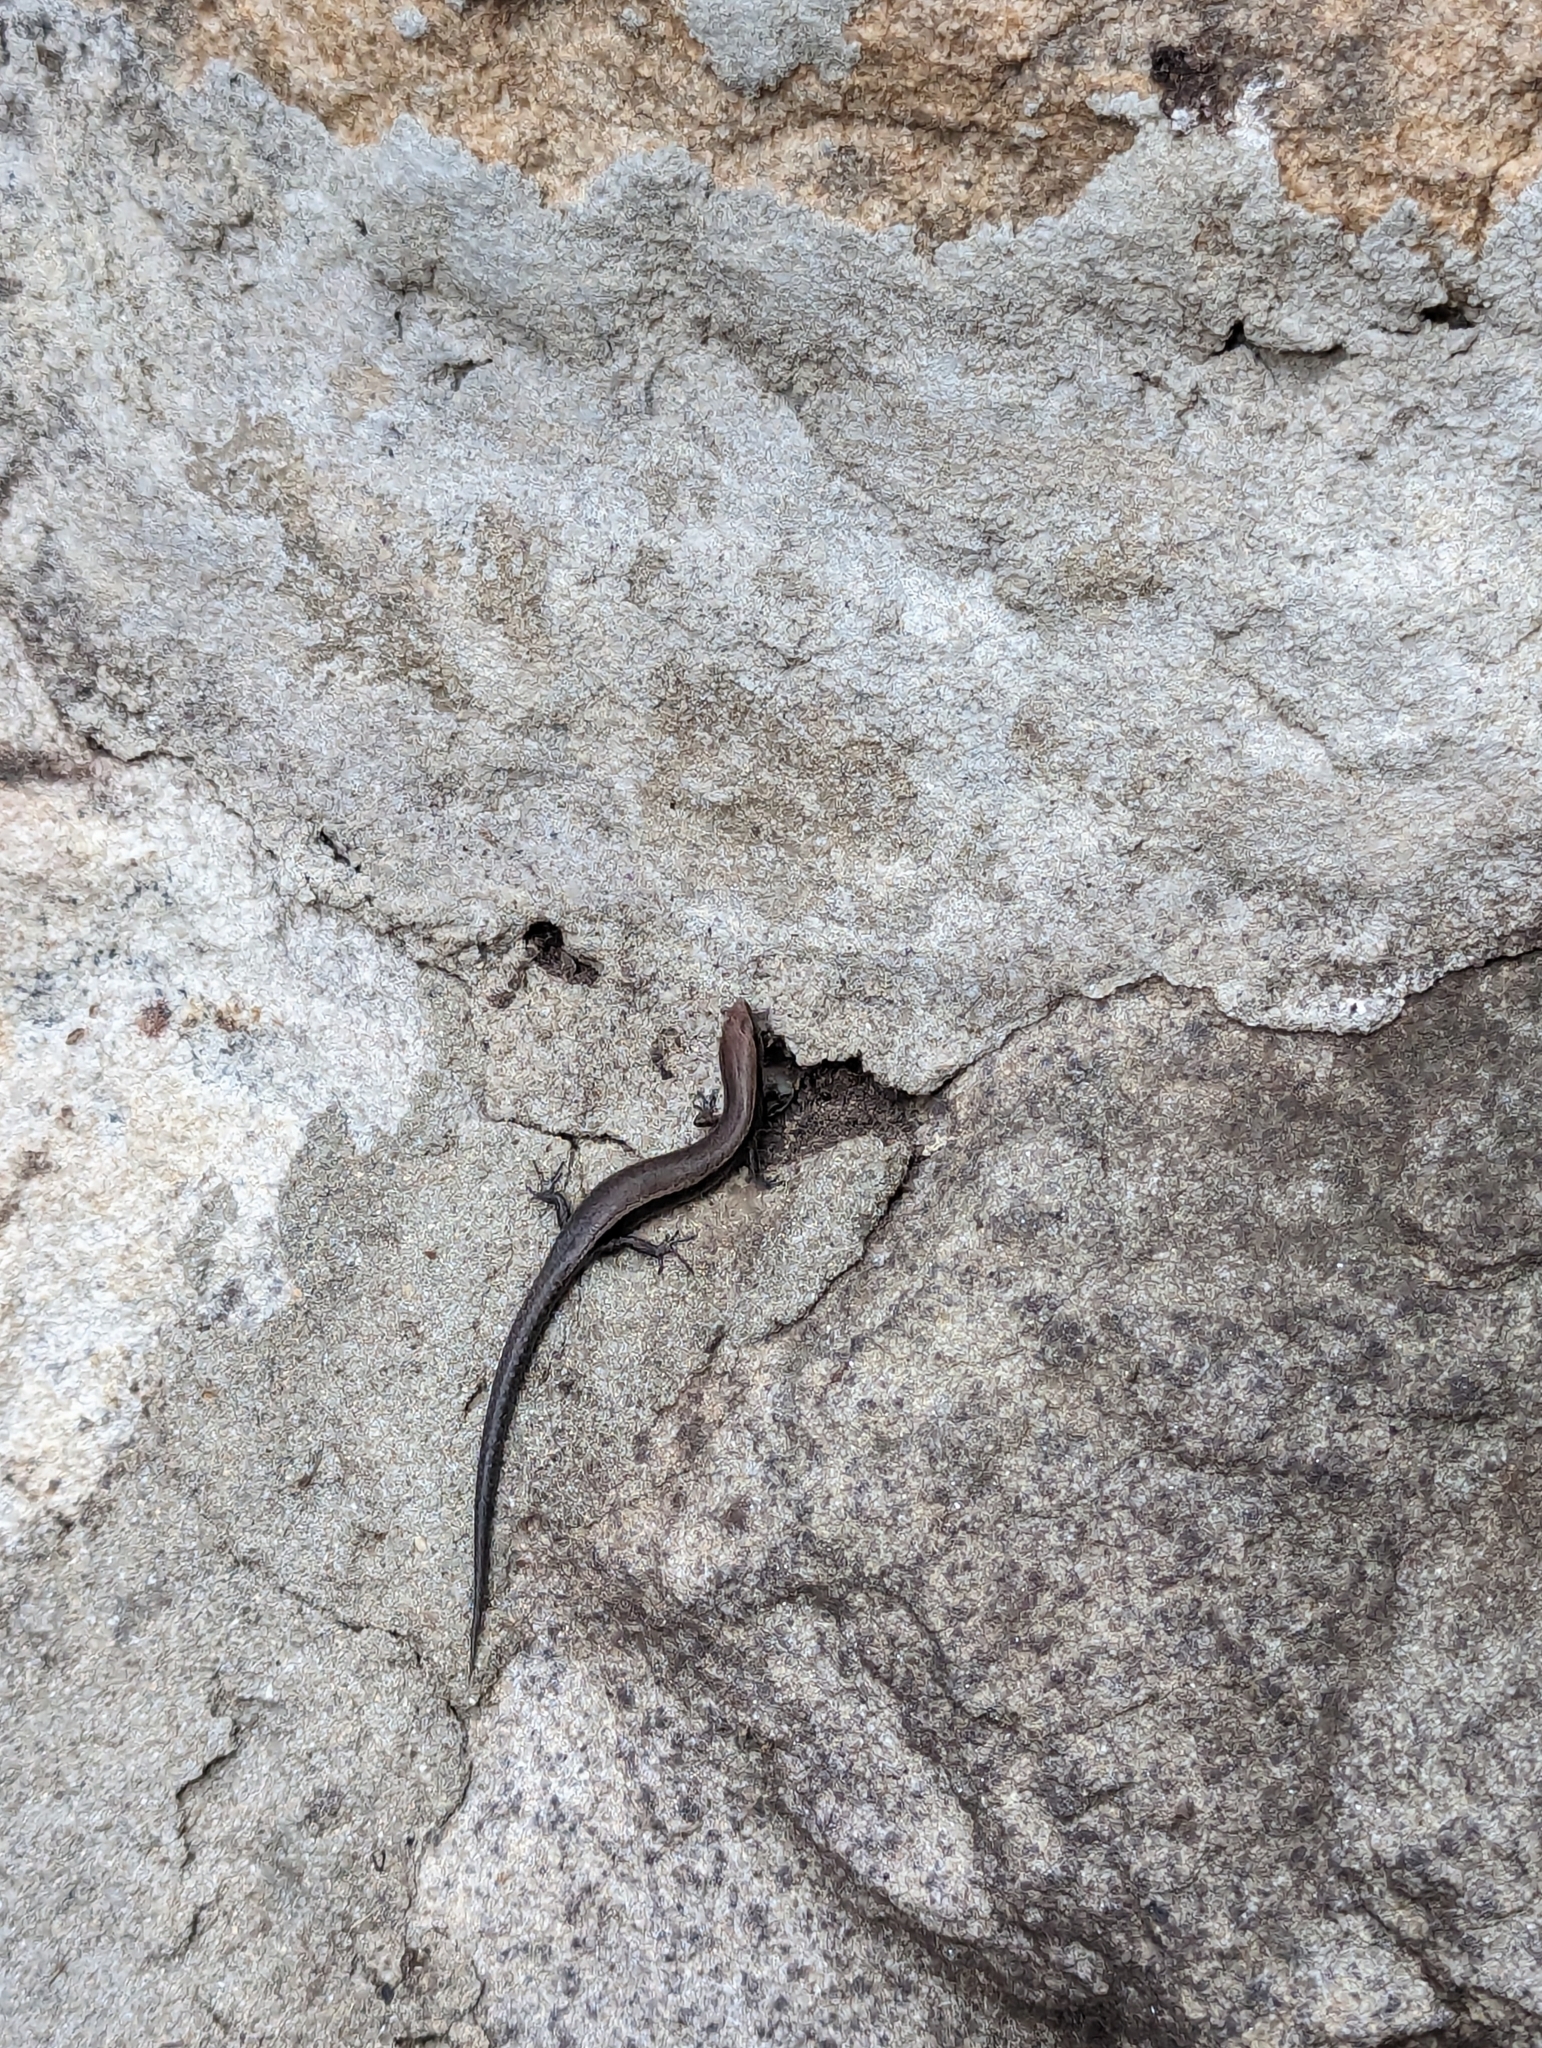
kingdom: Animalia
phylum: Chordata
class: Squamata
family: Scincidae
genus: Lampropholis
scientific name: Lampropholis delicata
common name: Plague skink
